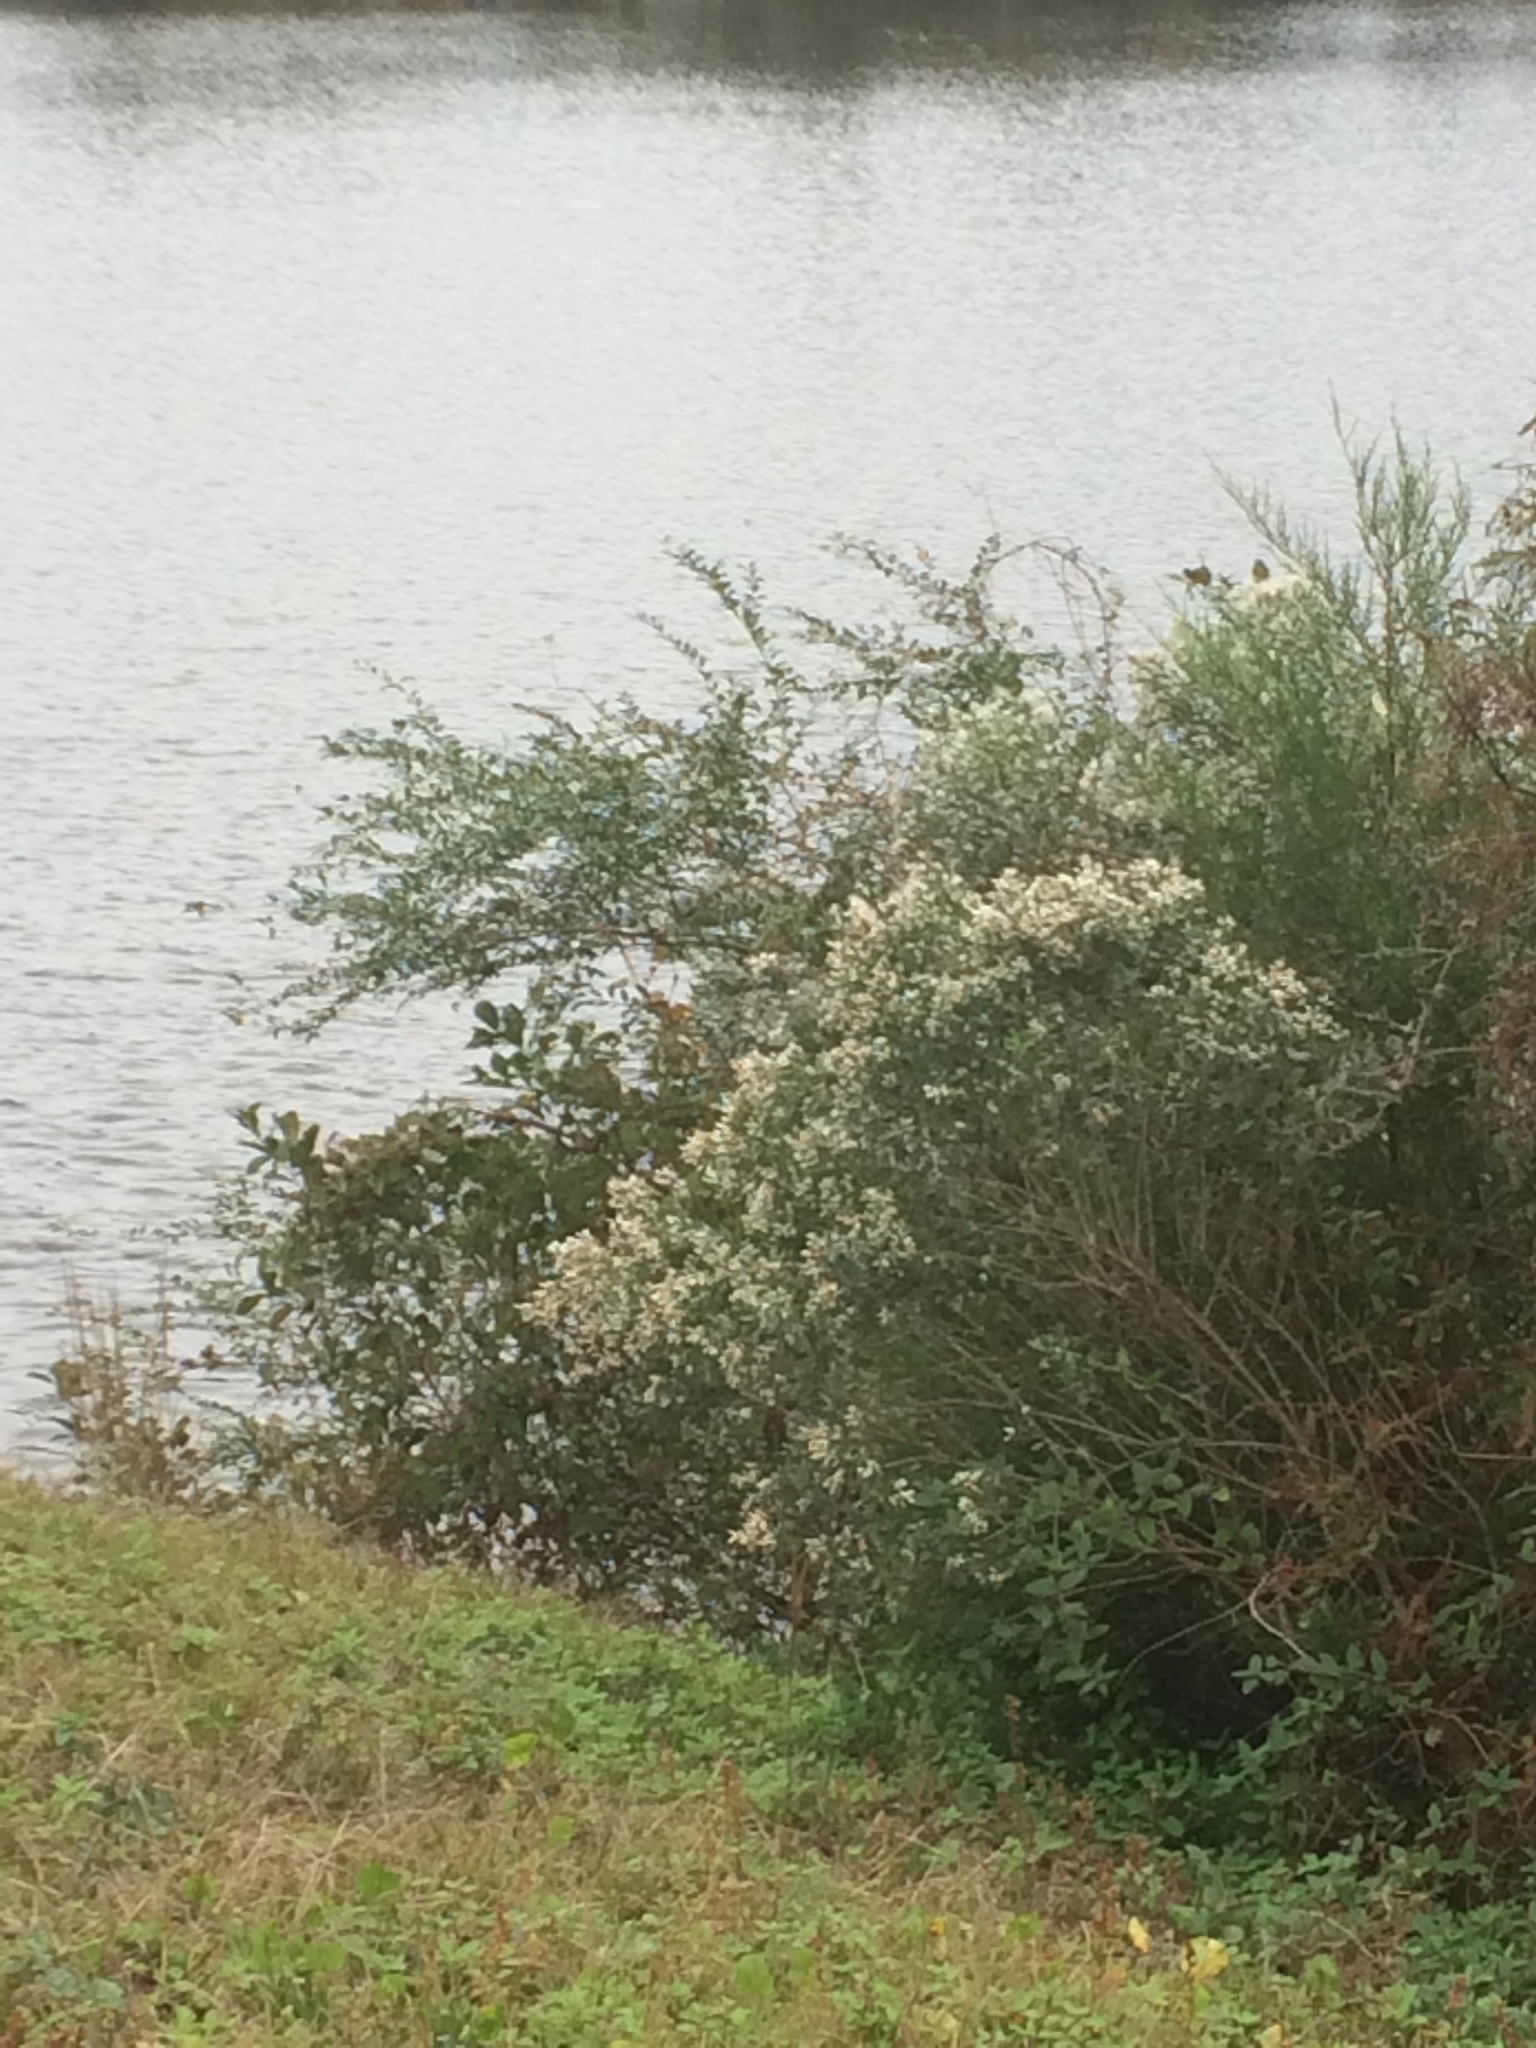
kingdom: Plantae
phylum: Tracheophyta
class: Magnoliopsida
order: Asterales
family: Asteraceae
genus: Baccharis
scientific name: Baccharis halimifolia
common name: Eastern baccharis
